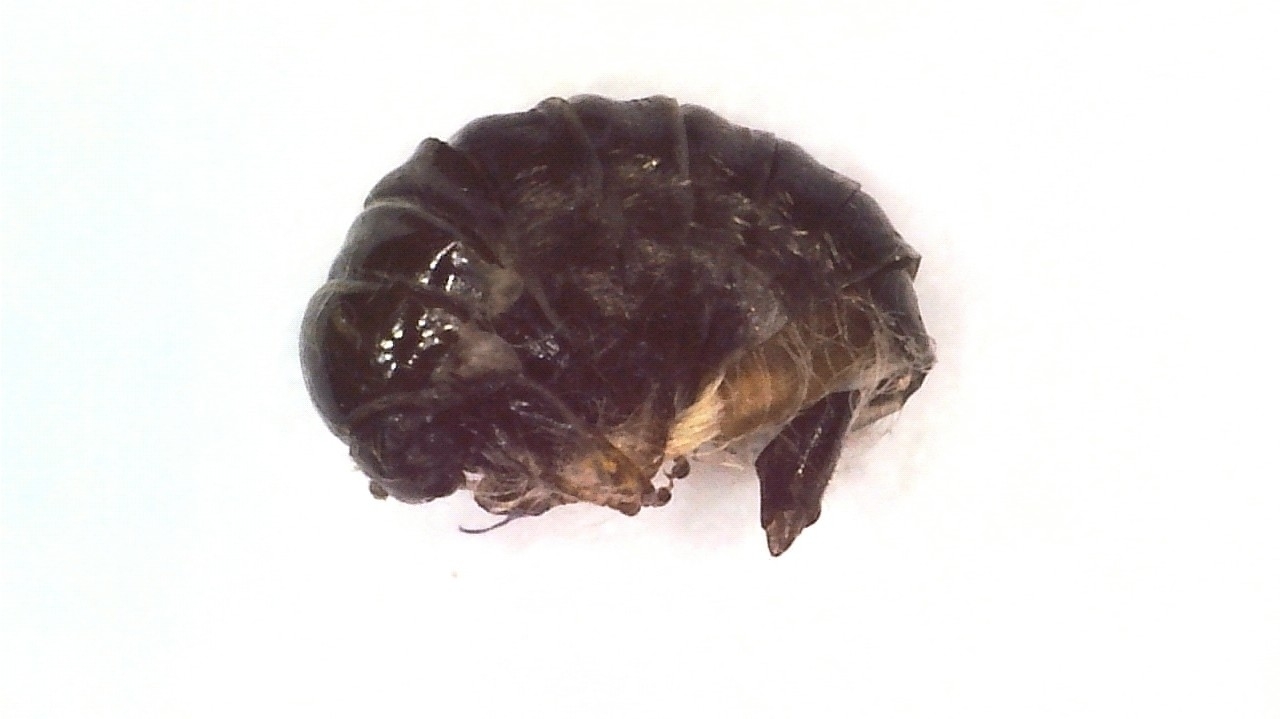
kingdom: Animalia
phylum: Arthropoda
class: Insecta
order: Lepidoptera
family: Psychidae
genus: Dahlica
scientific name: Dahlica listerella
